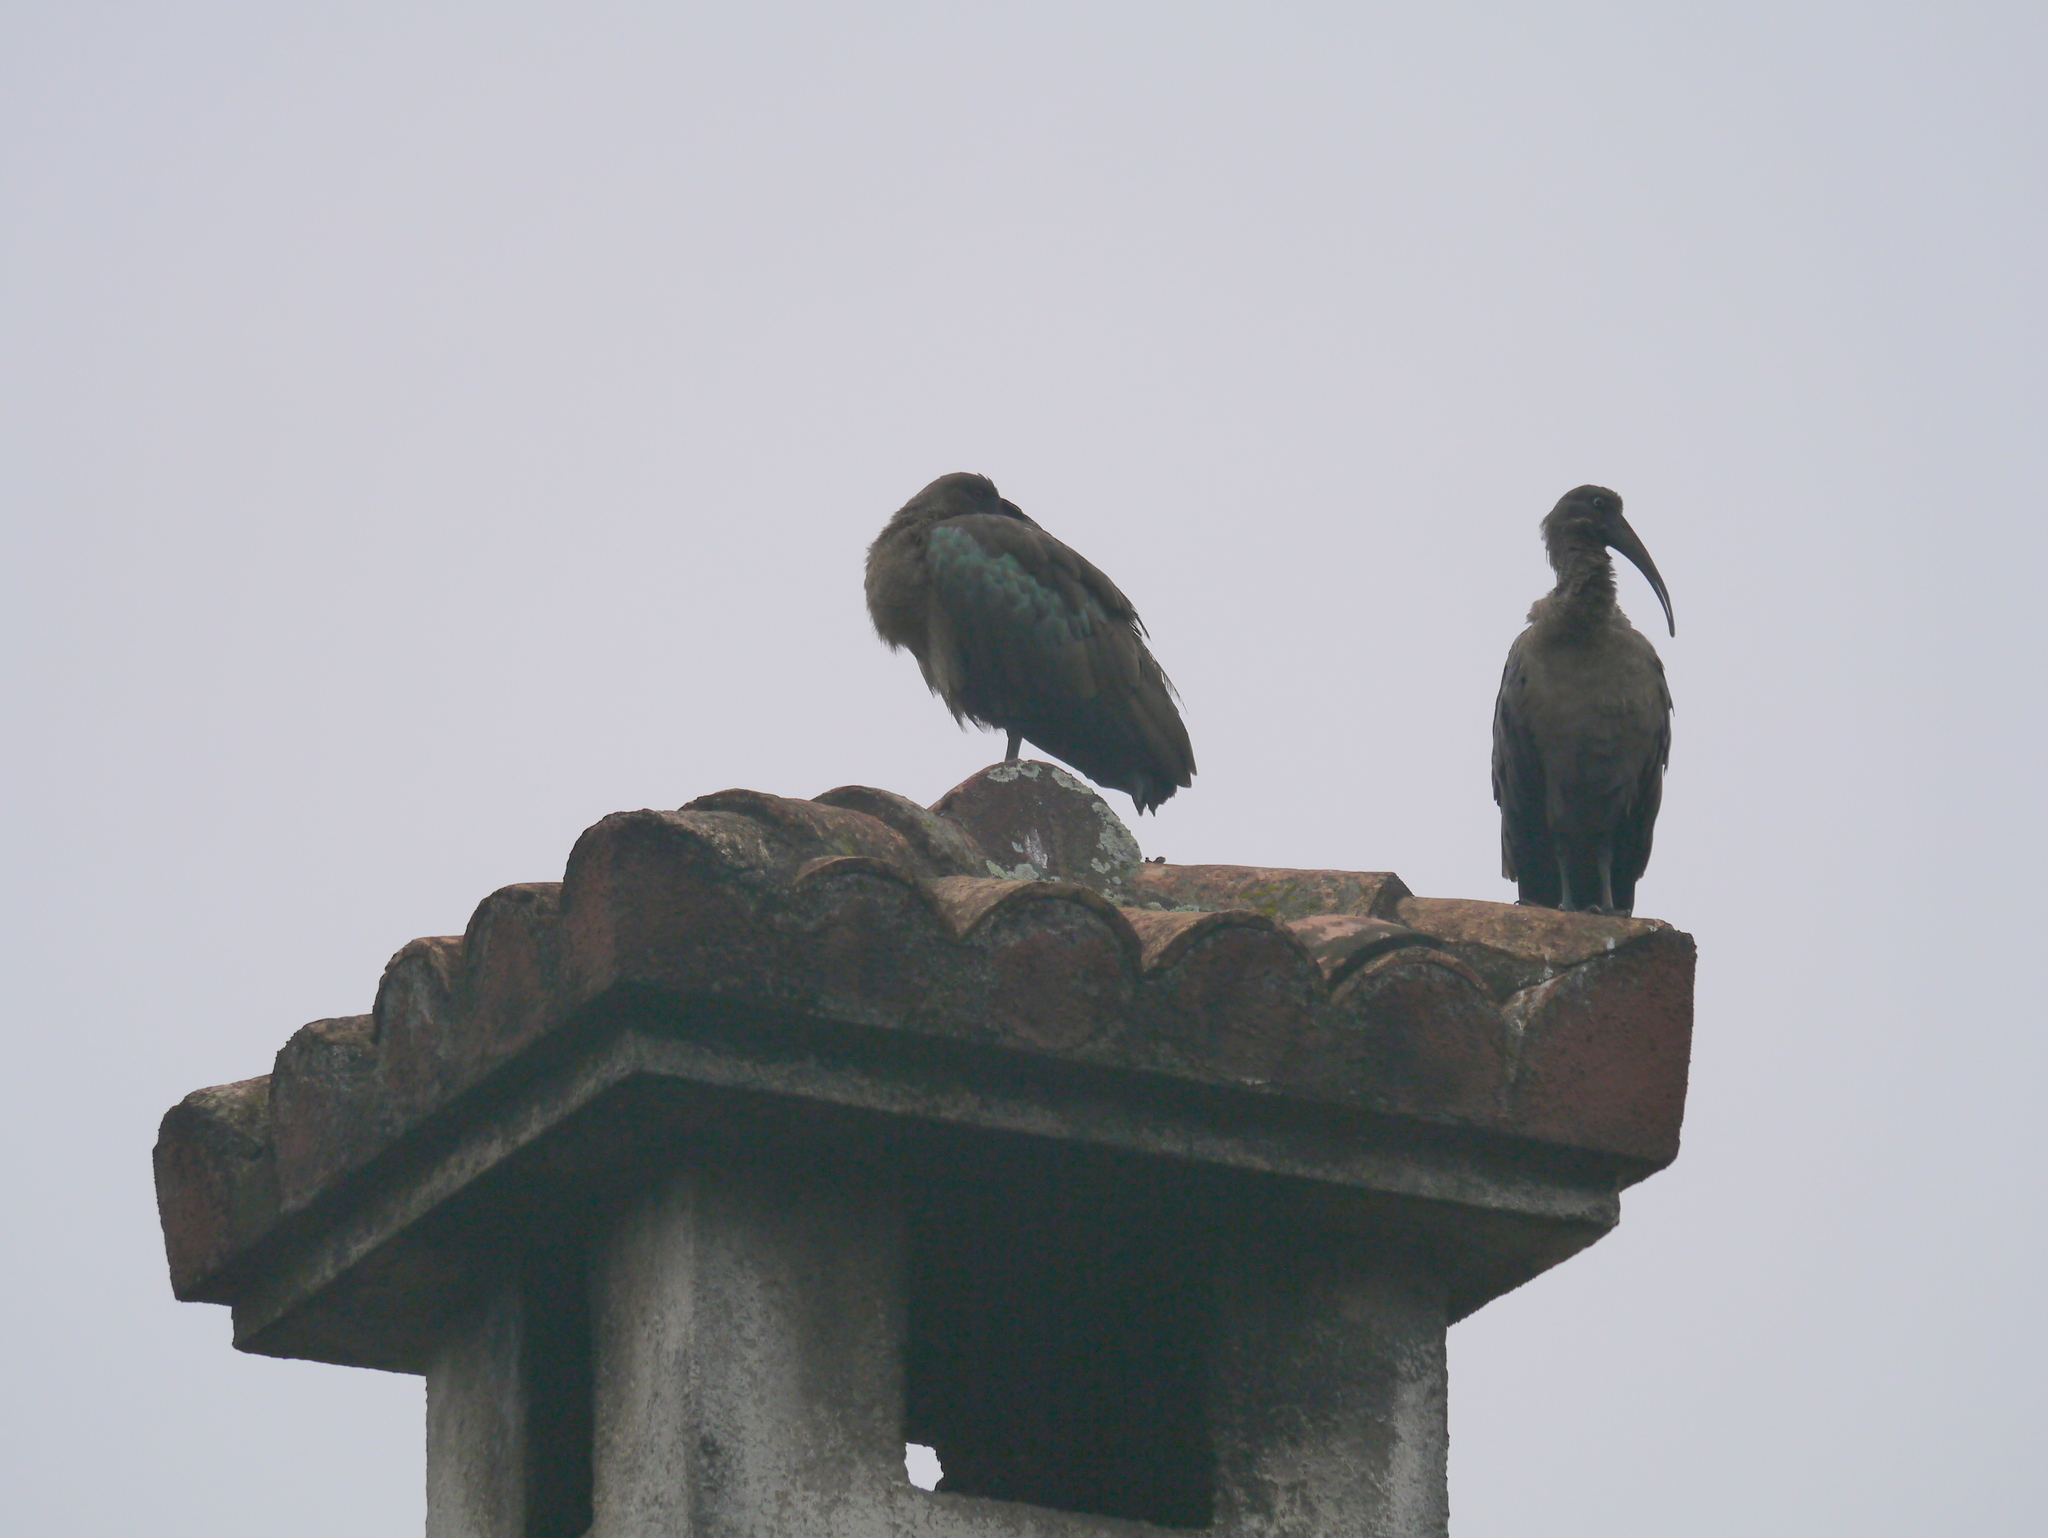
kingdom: Animalia
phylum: Chordata
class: Aves
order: Pelecaniformes
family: Threskiornithidae
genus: Bostrychia
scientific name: Bostrychia hagedash
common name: Hadada ibis
